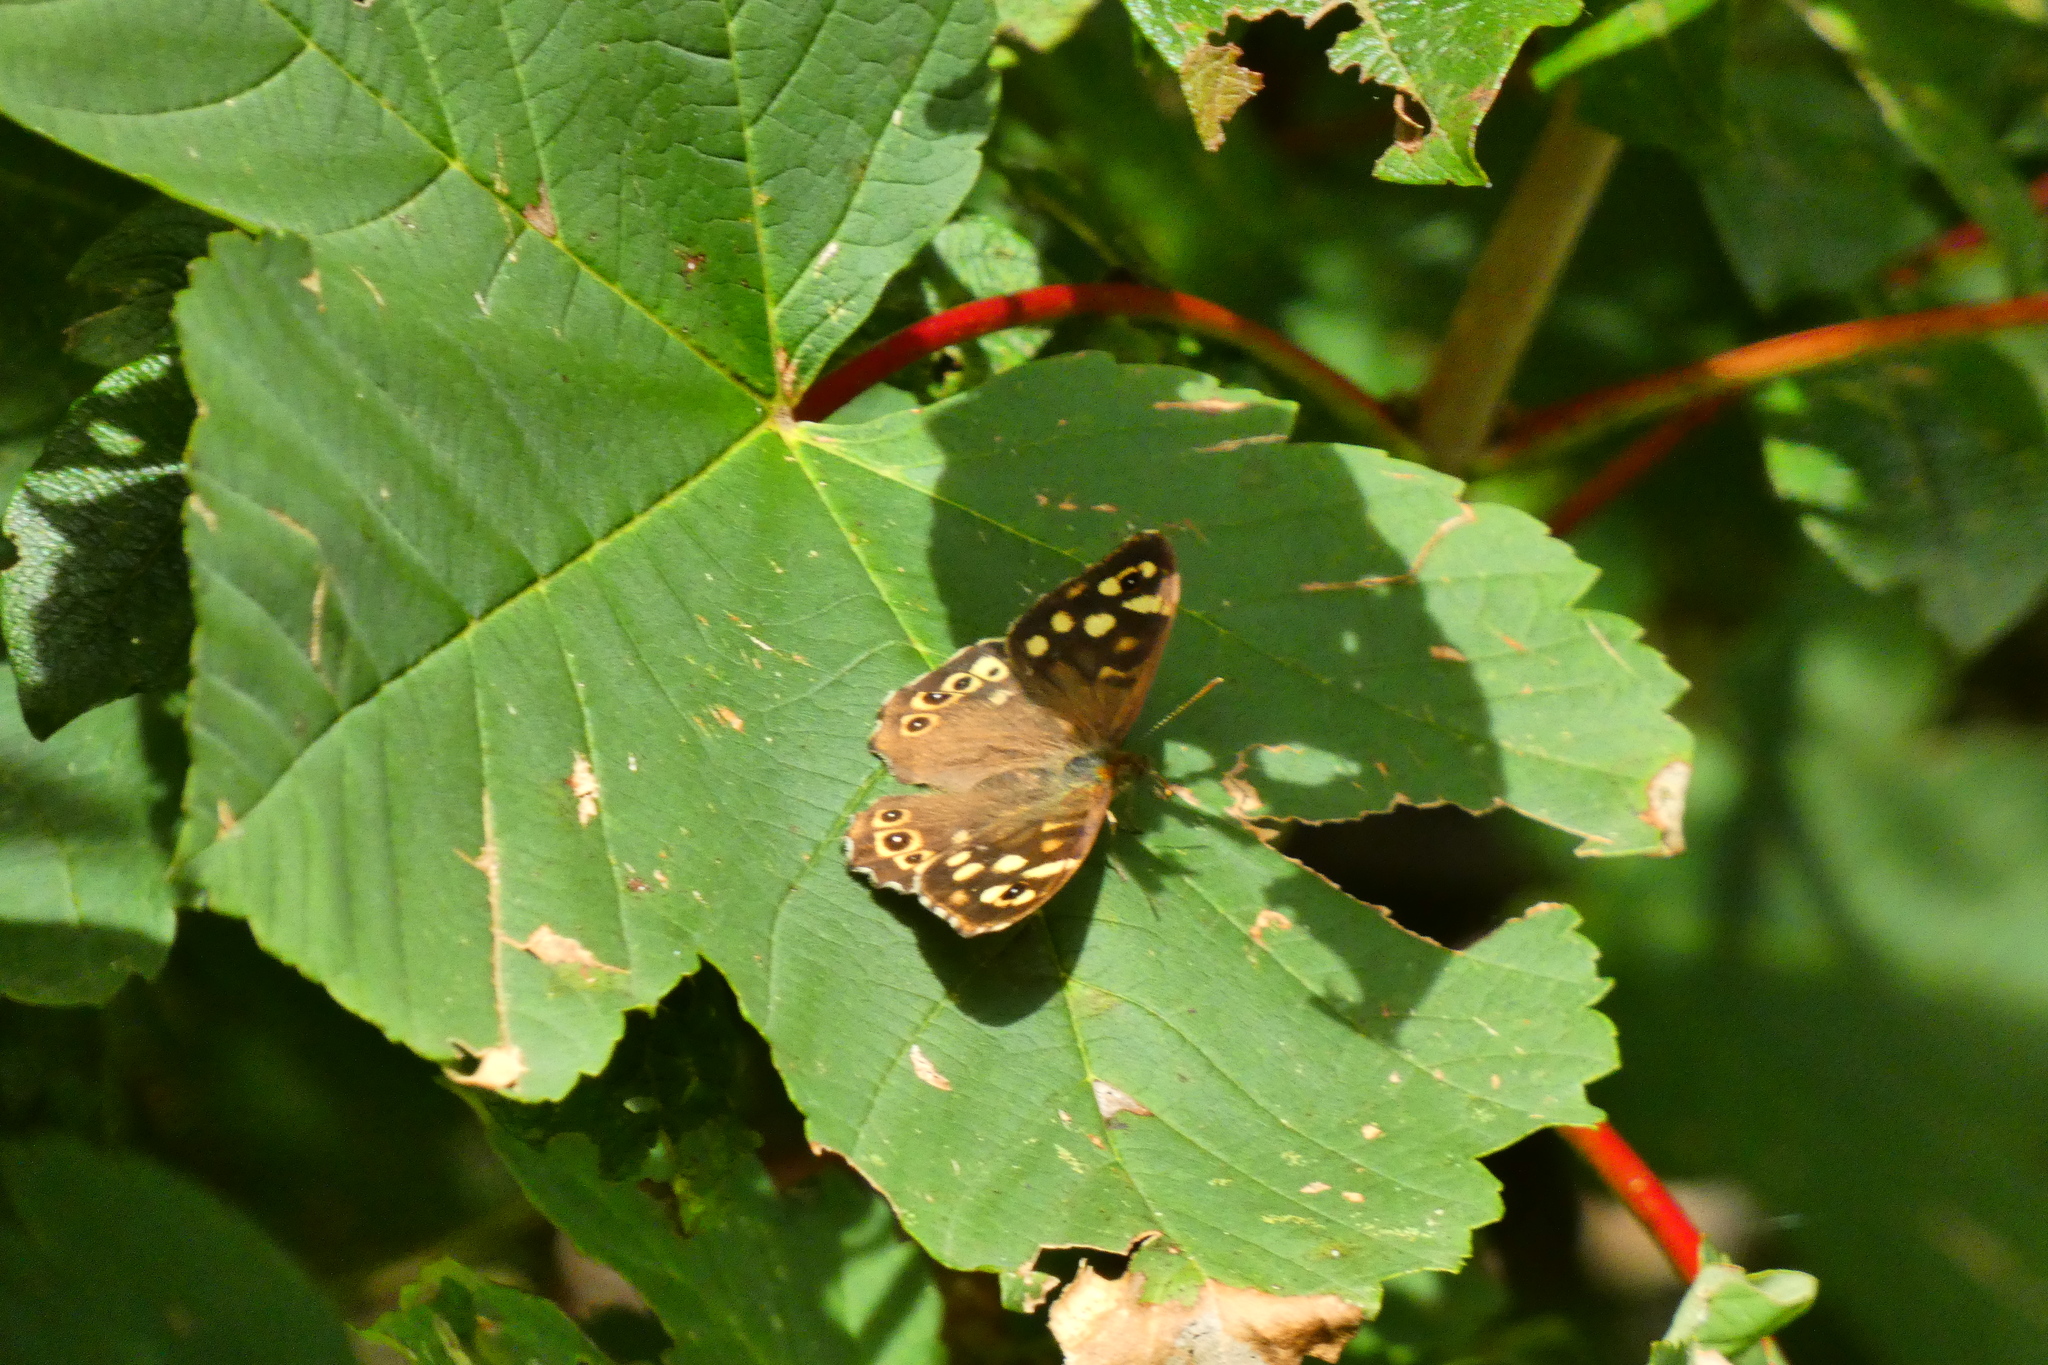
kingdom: Animalia
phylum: Arthropoda
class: Insecta
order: Lepidoptera
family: Nymphalidae
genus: Pararge
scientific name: Pararge aegeria
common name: Speckled wood
